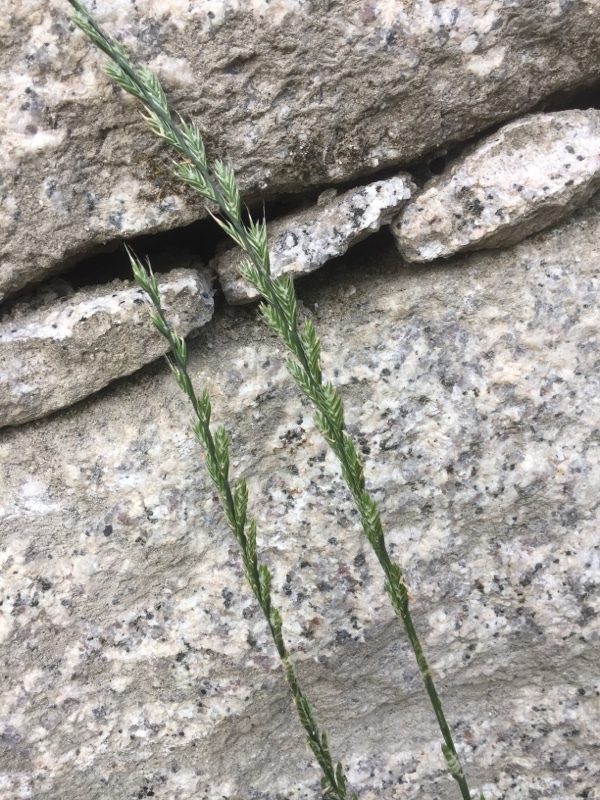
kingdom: Plantae
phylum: Tracheophyta
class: Liliopsida
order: Poales
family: Poaceae
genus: Lolium
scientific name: Lolium multiflorum
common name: Annual ryegrass
